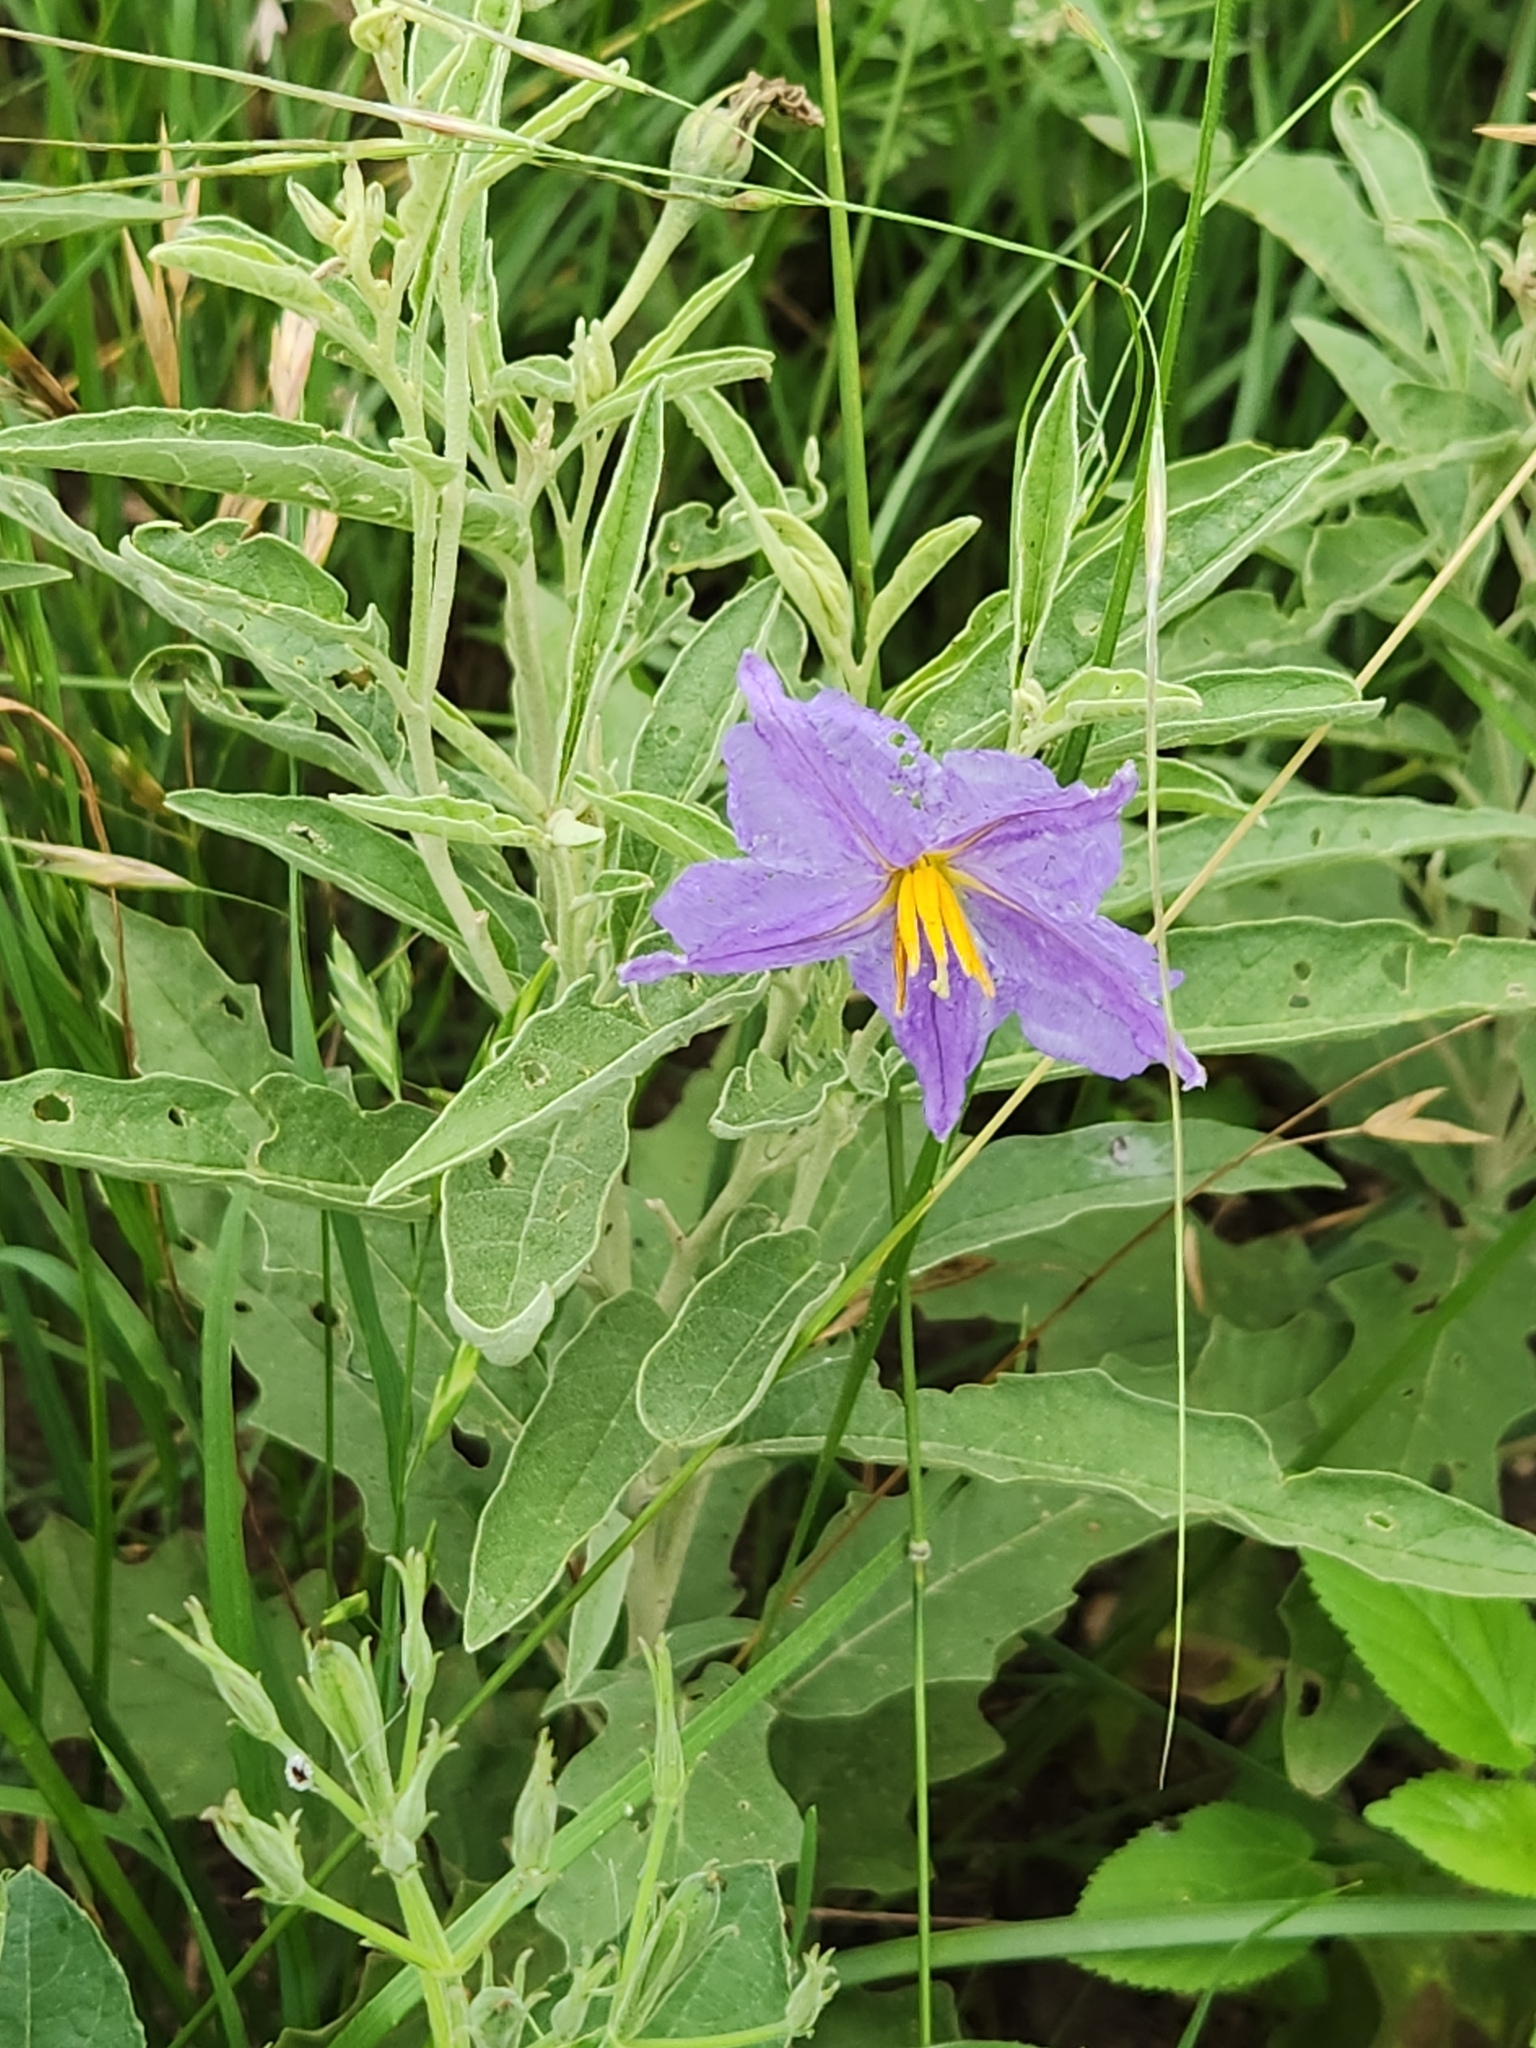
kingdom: Plantae
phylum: Tracheophyta
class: Magnoliopsida
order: Solanales
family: Solanaceae
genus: Solanum
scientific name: Solanum elaeagnifolium
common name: Silverleaf nightshade
